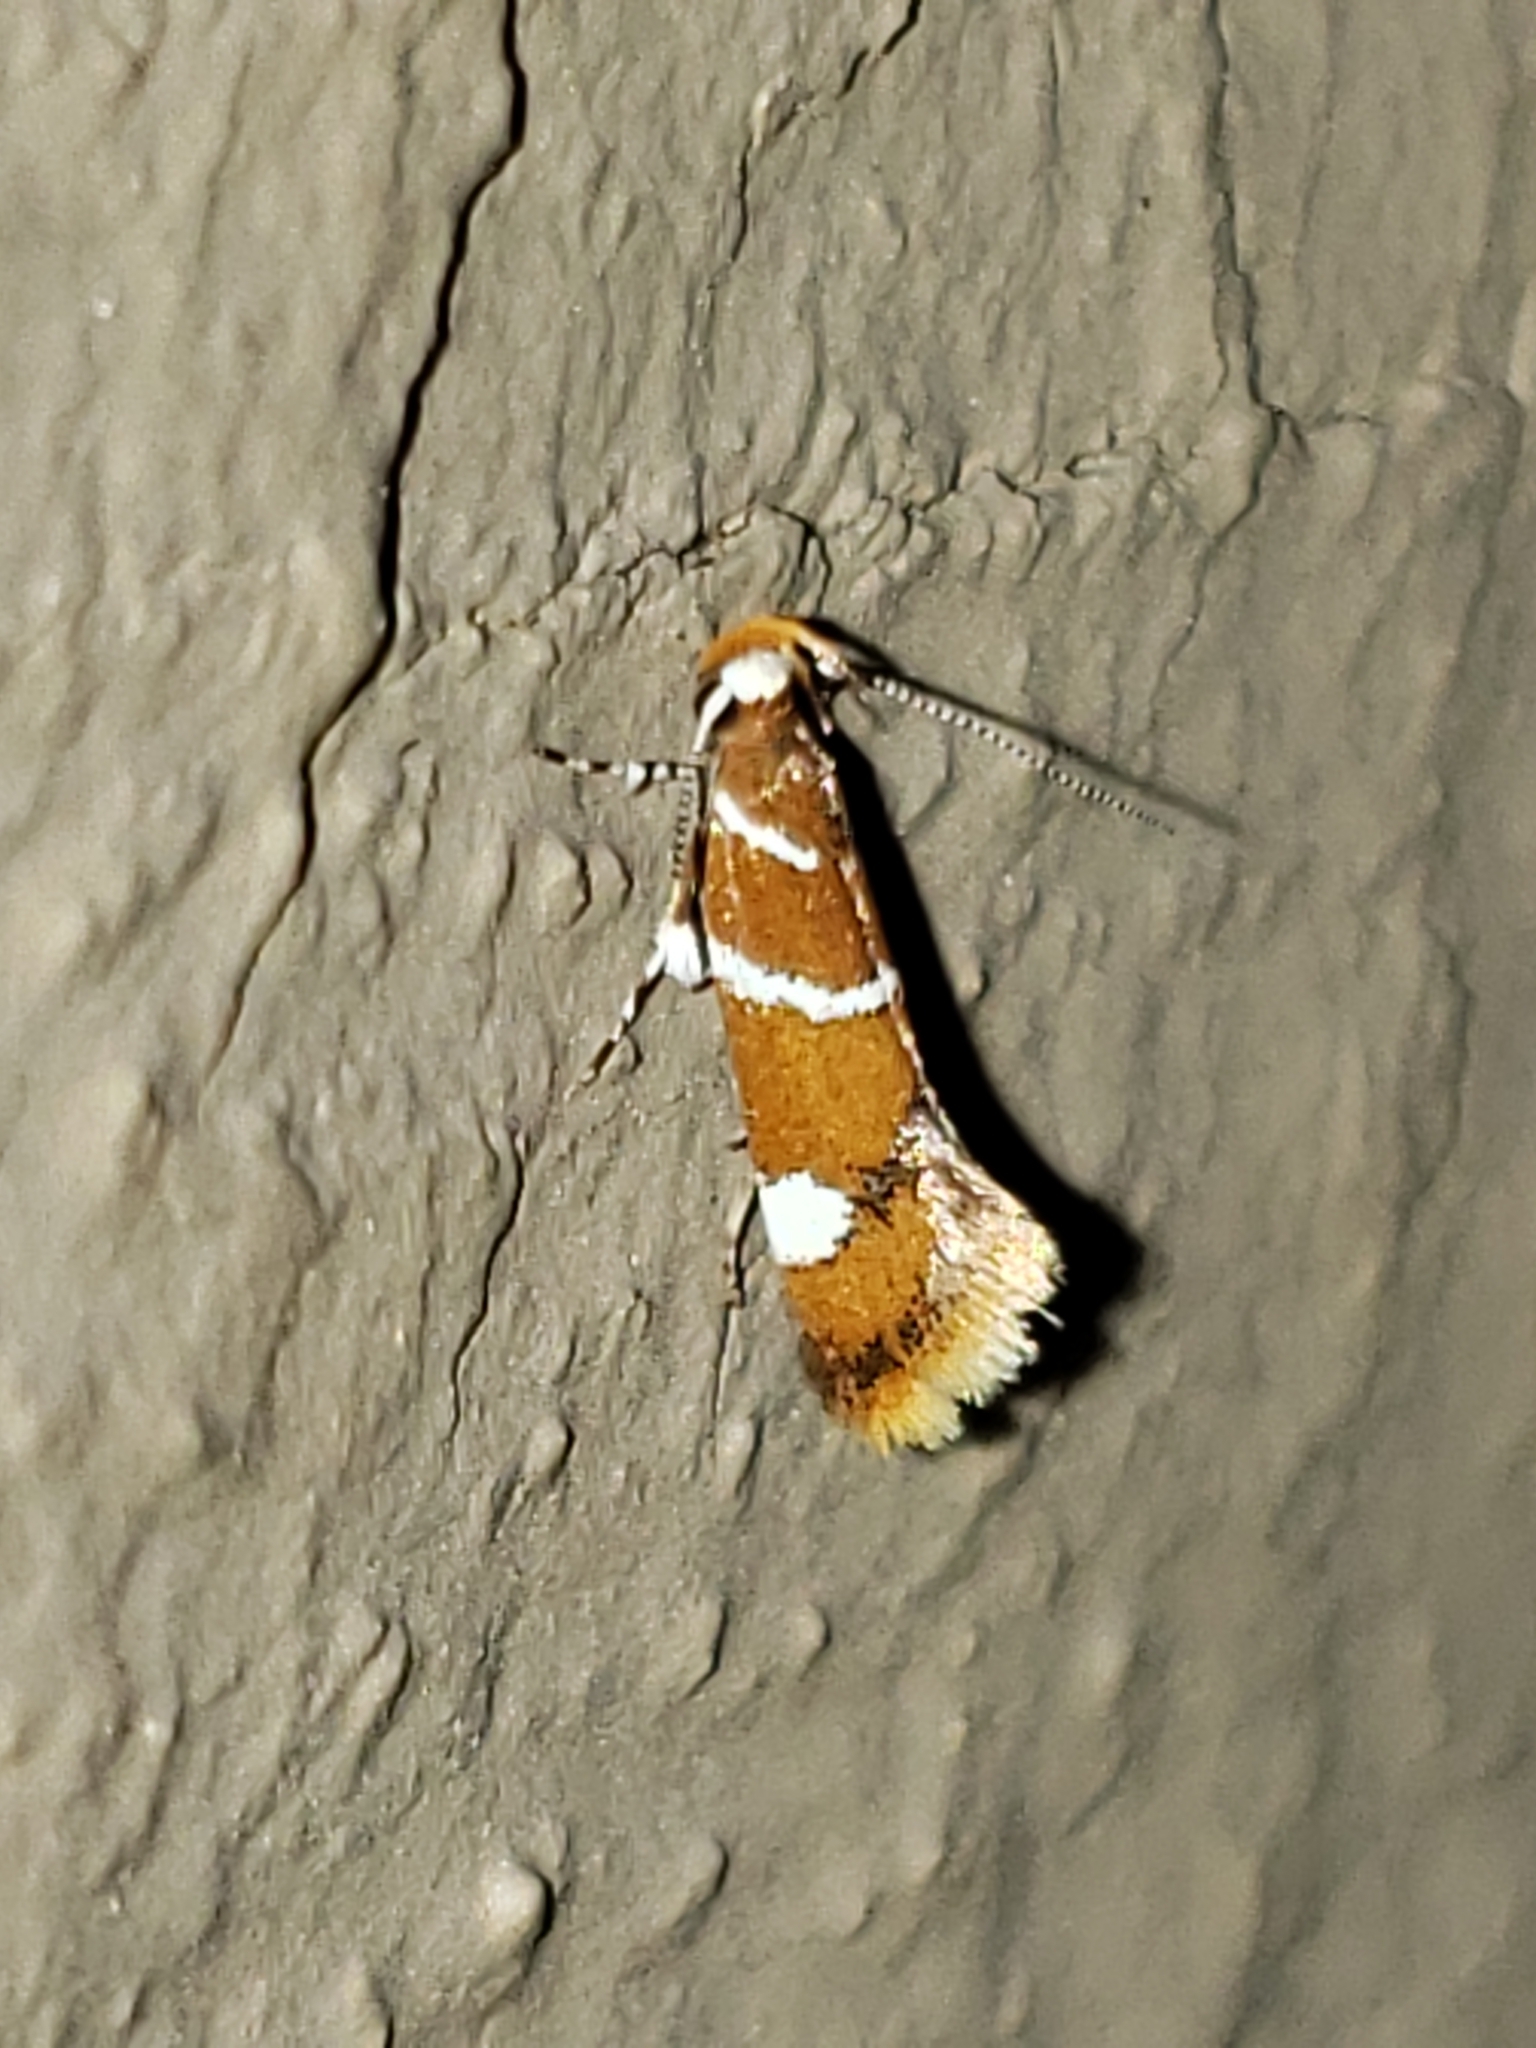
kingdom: Animalia
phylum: Arthropoda
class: Insecta
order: Lepidoptera
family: Oecophoridae
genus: Promalactis
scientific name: Promalactis suzukiella
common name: Moth
